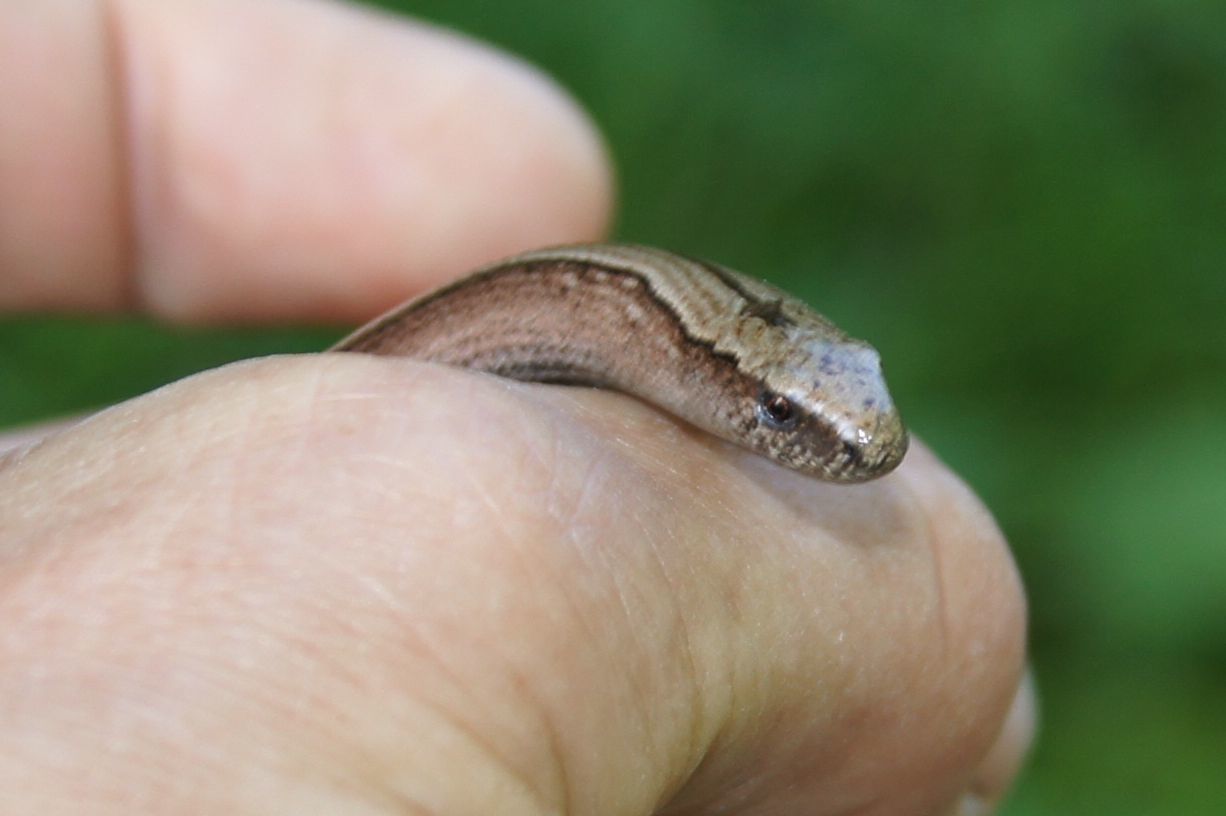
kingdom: Animalia
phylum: Chordata
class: Squamata
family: Anguidae
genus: Anguis
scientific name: Anguis fragilis
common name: Slow worm
